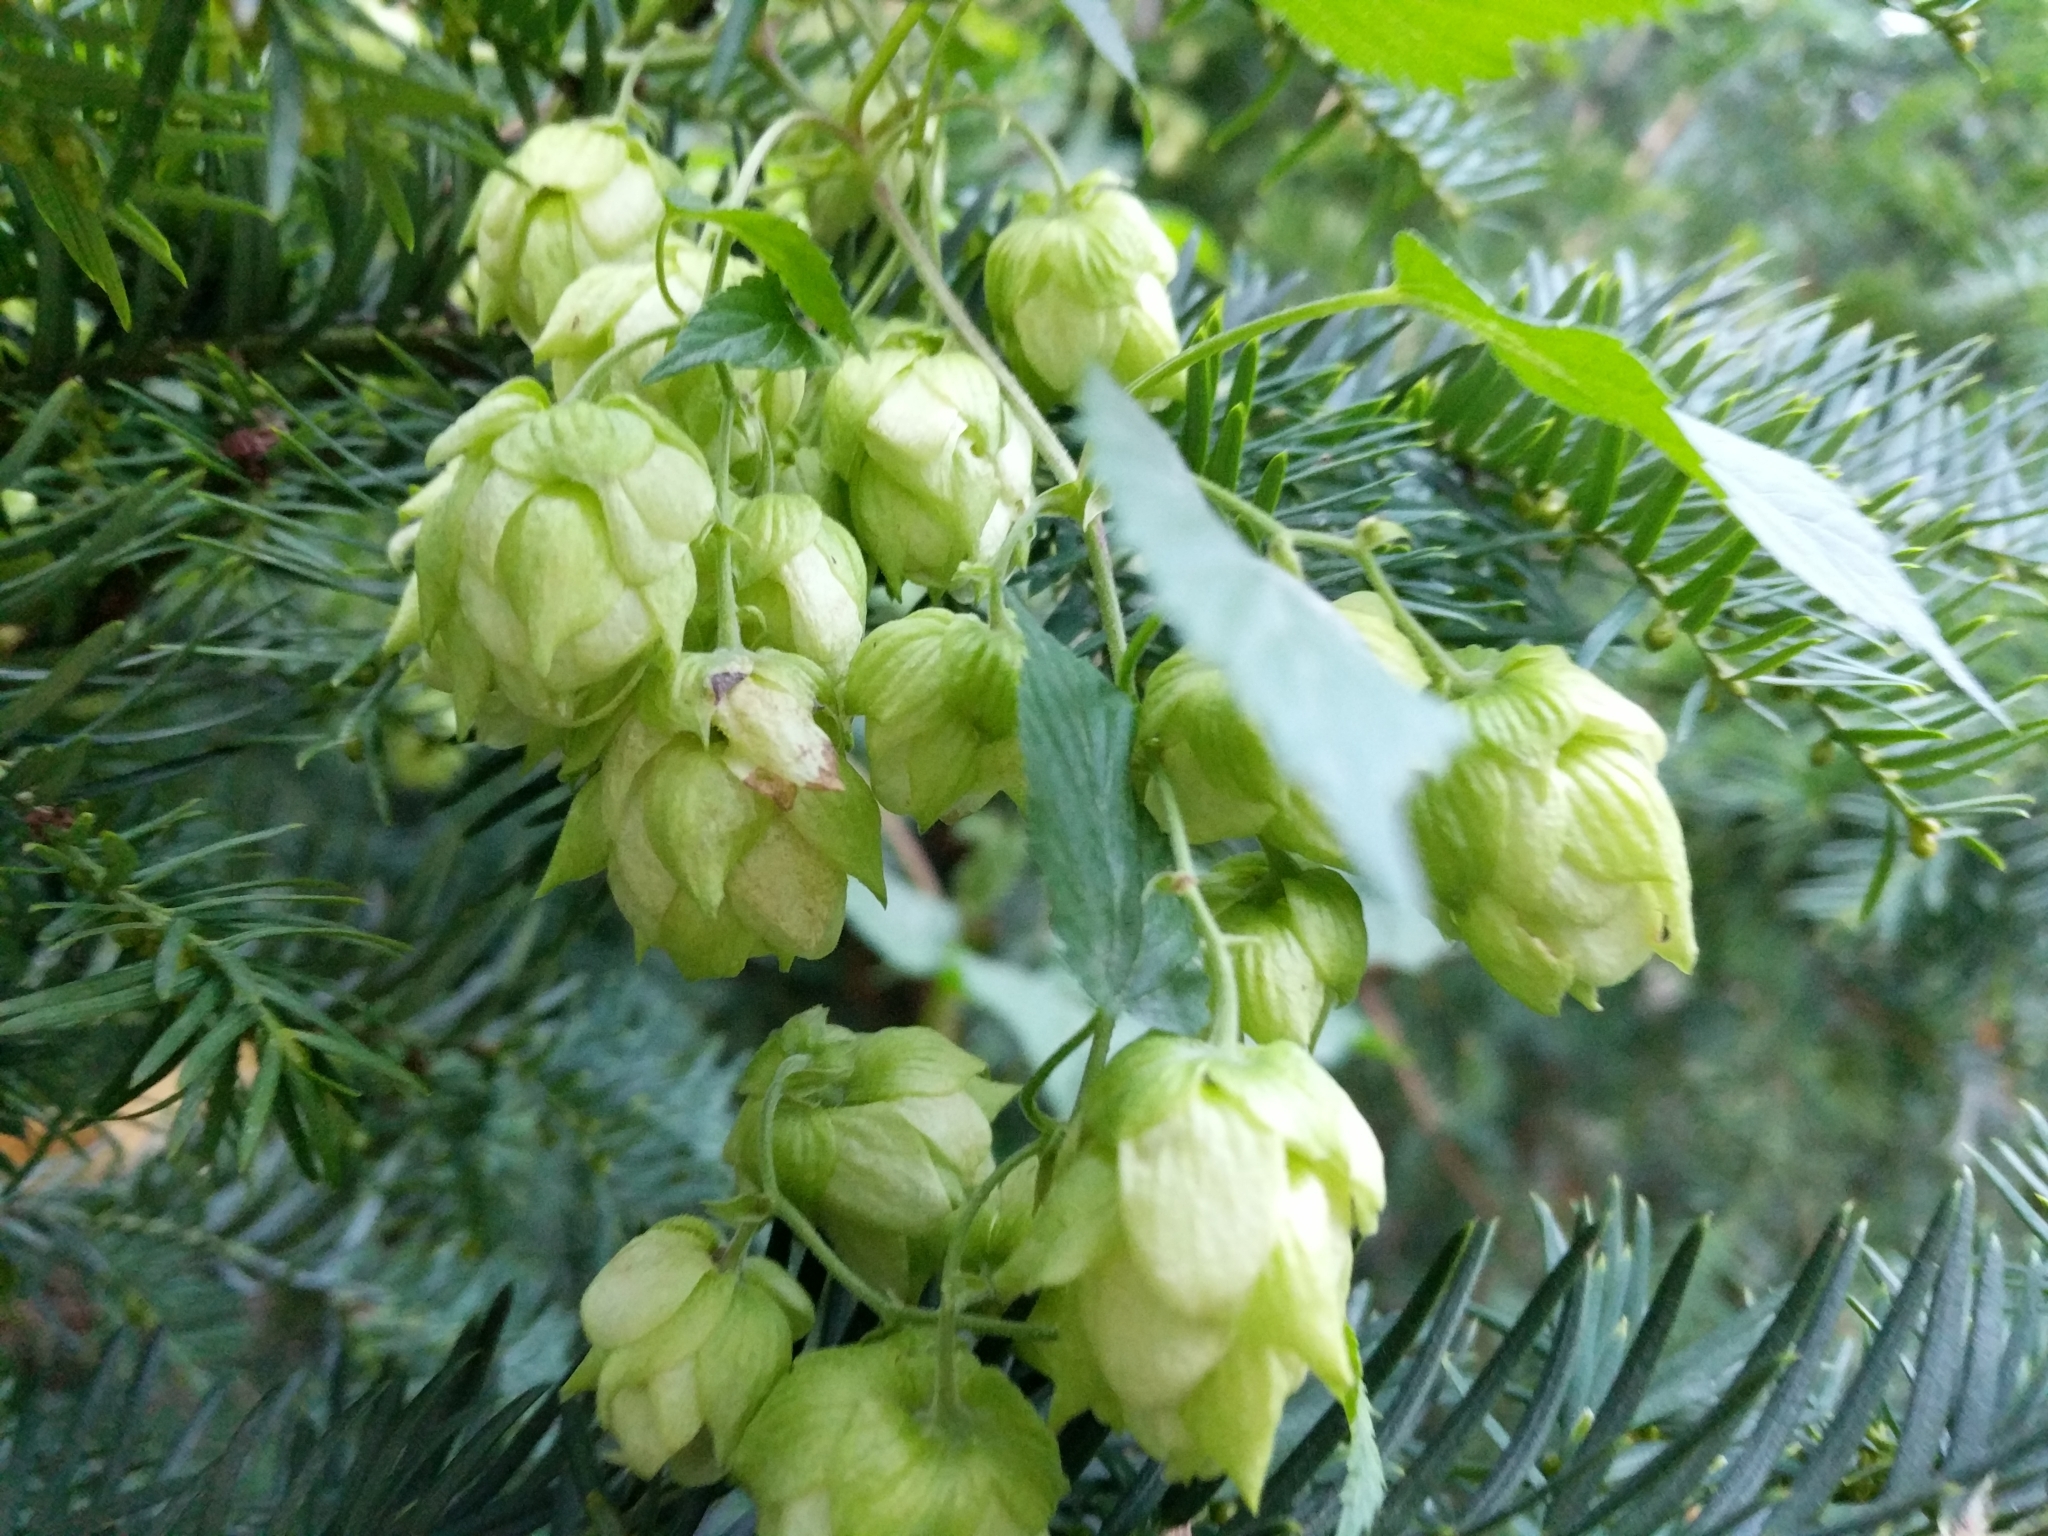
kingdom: Plantae
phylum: Tracheophyta
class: Magnoliopsida
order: Rosales
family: Cannabaceae
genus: Humulus
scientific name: Humulus lupulus
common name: Hop
